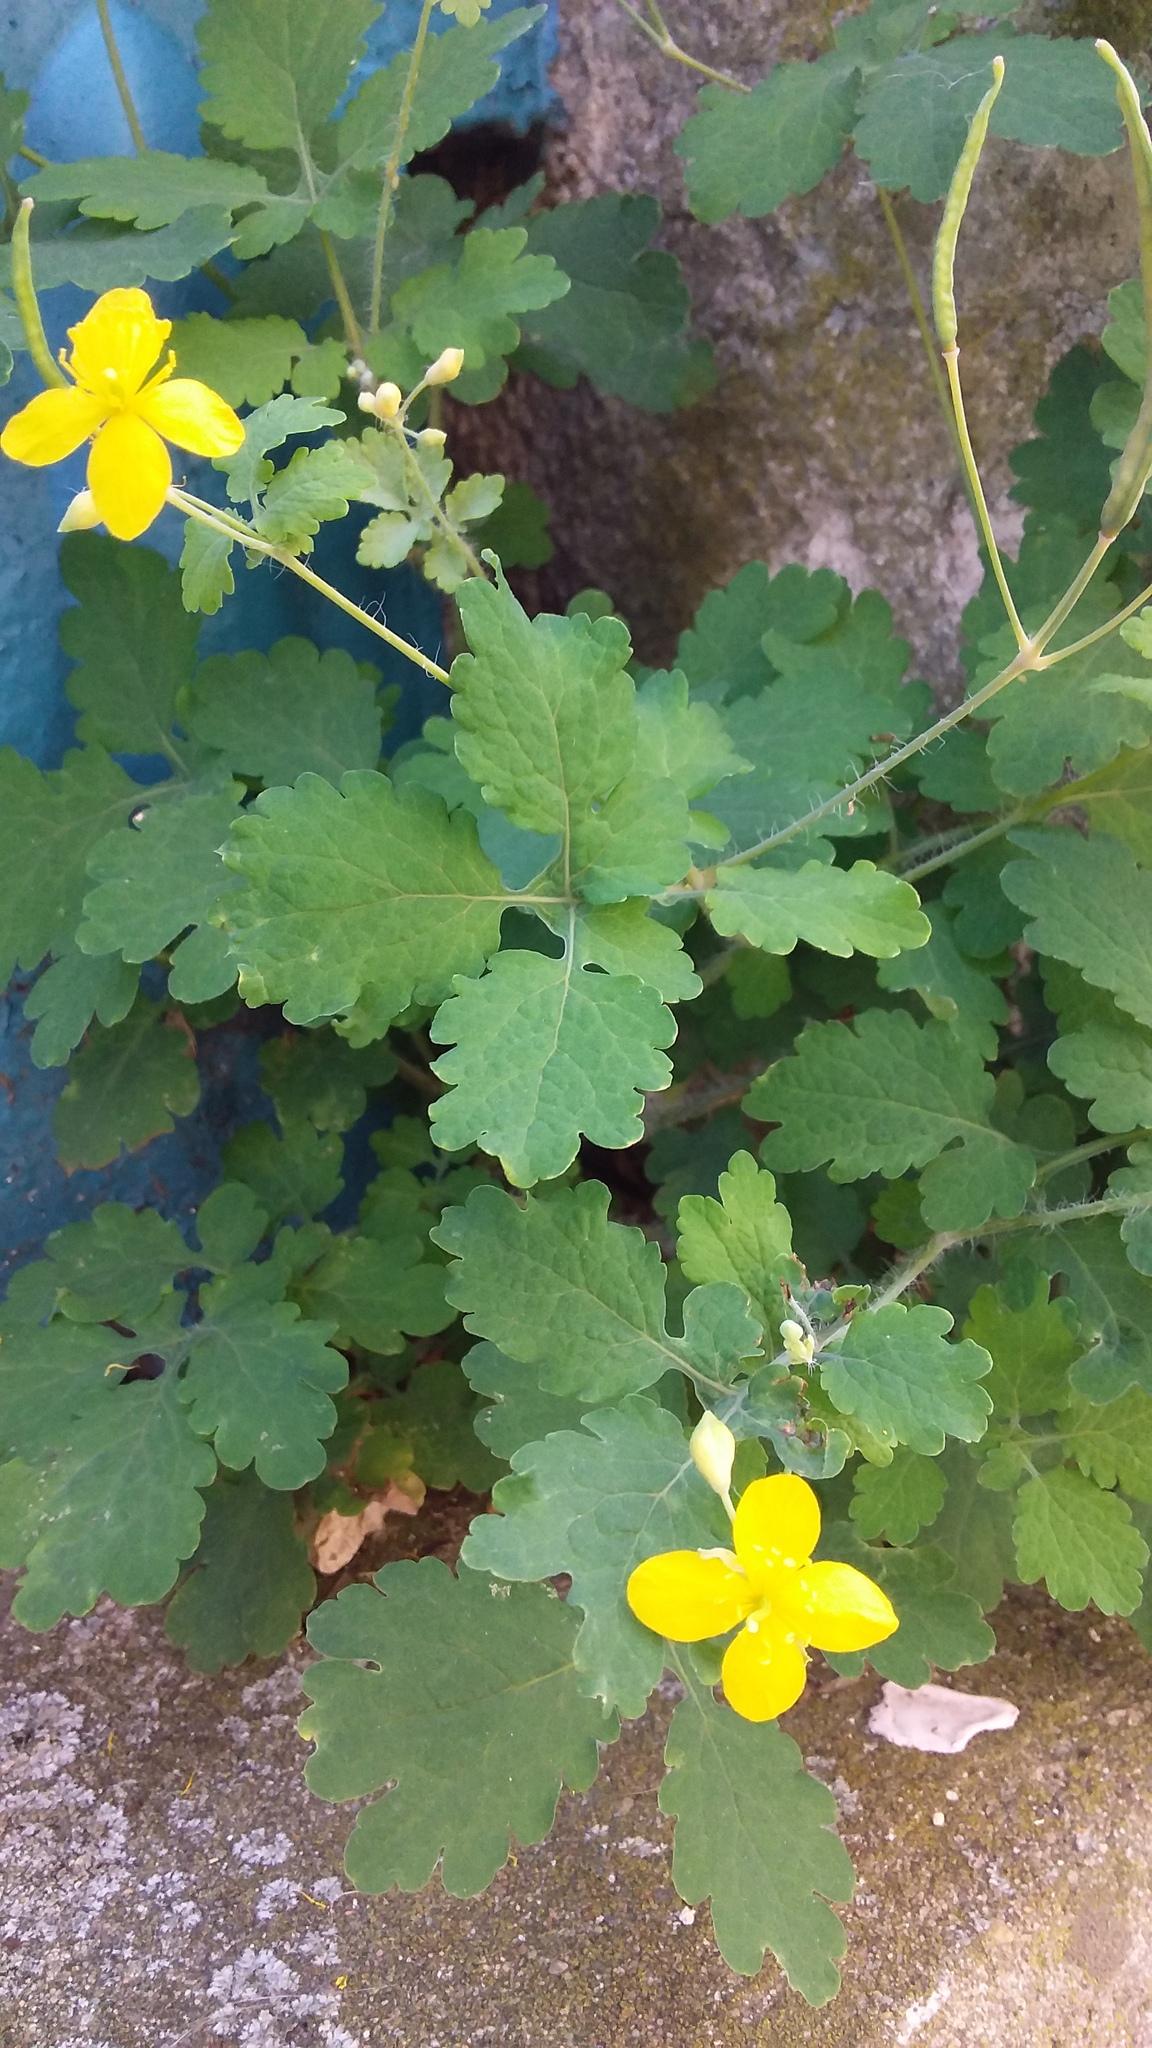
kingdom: Plantae
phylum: Tracheophyta
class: Magnoliopsida
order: Ranunculales
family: Papaveraceae
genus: Chelidonium
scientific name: Chelidonium majus
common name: Greater celandine
